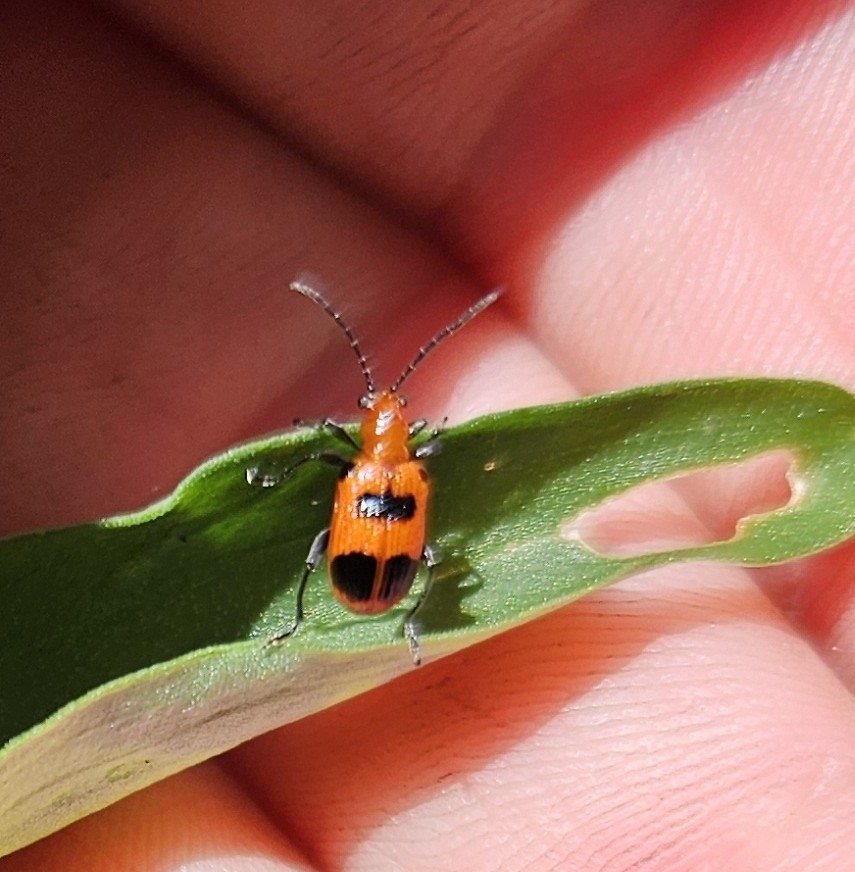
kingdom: Animalia
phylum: Arthropoda
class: Insecta
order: Coleoptera
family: Chrysomelidae
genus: Neolema
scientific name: Neolema sexpunctata
